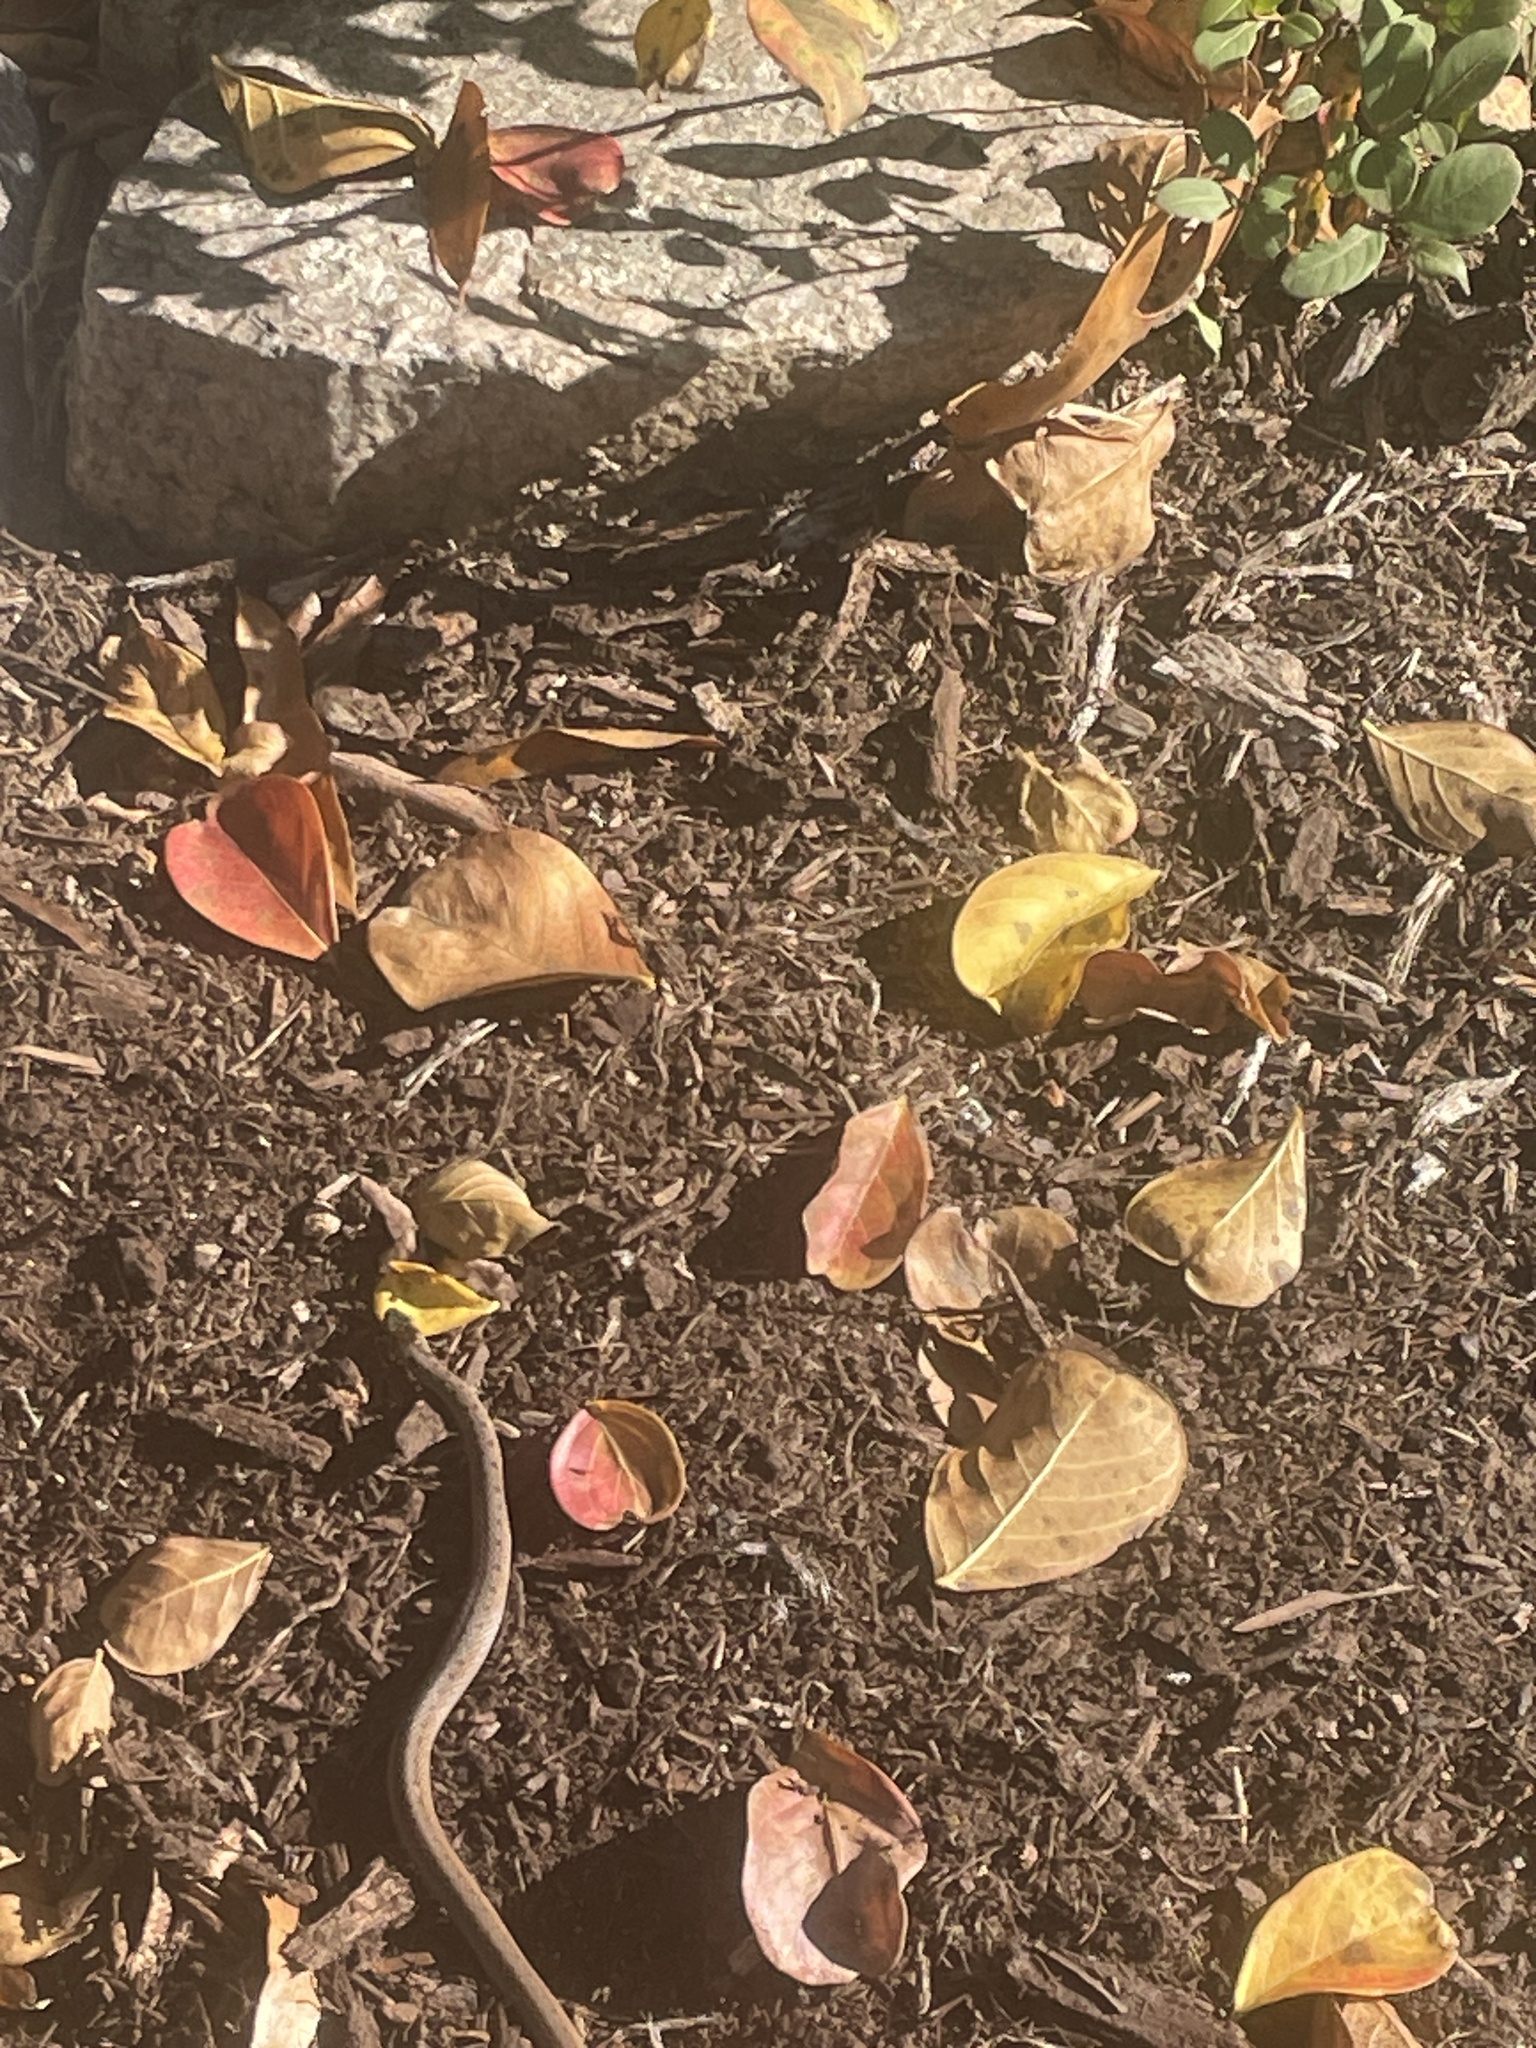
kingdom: Animalia
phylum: Chordata
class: Squamata
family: Colubridae
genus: Storeria
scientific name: Storeria dekayi
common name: (dekay’s) brown snake
